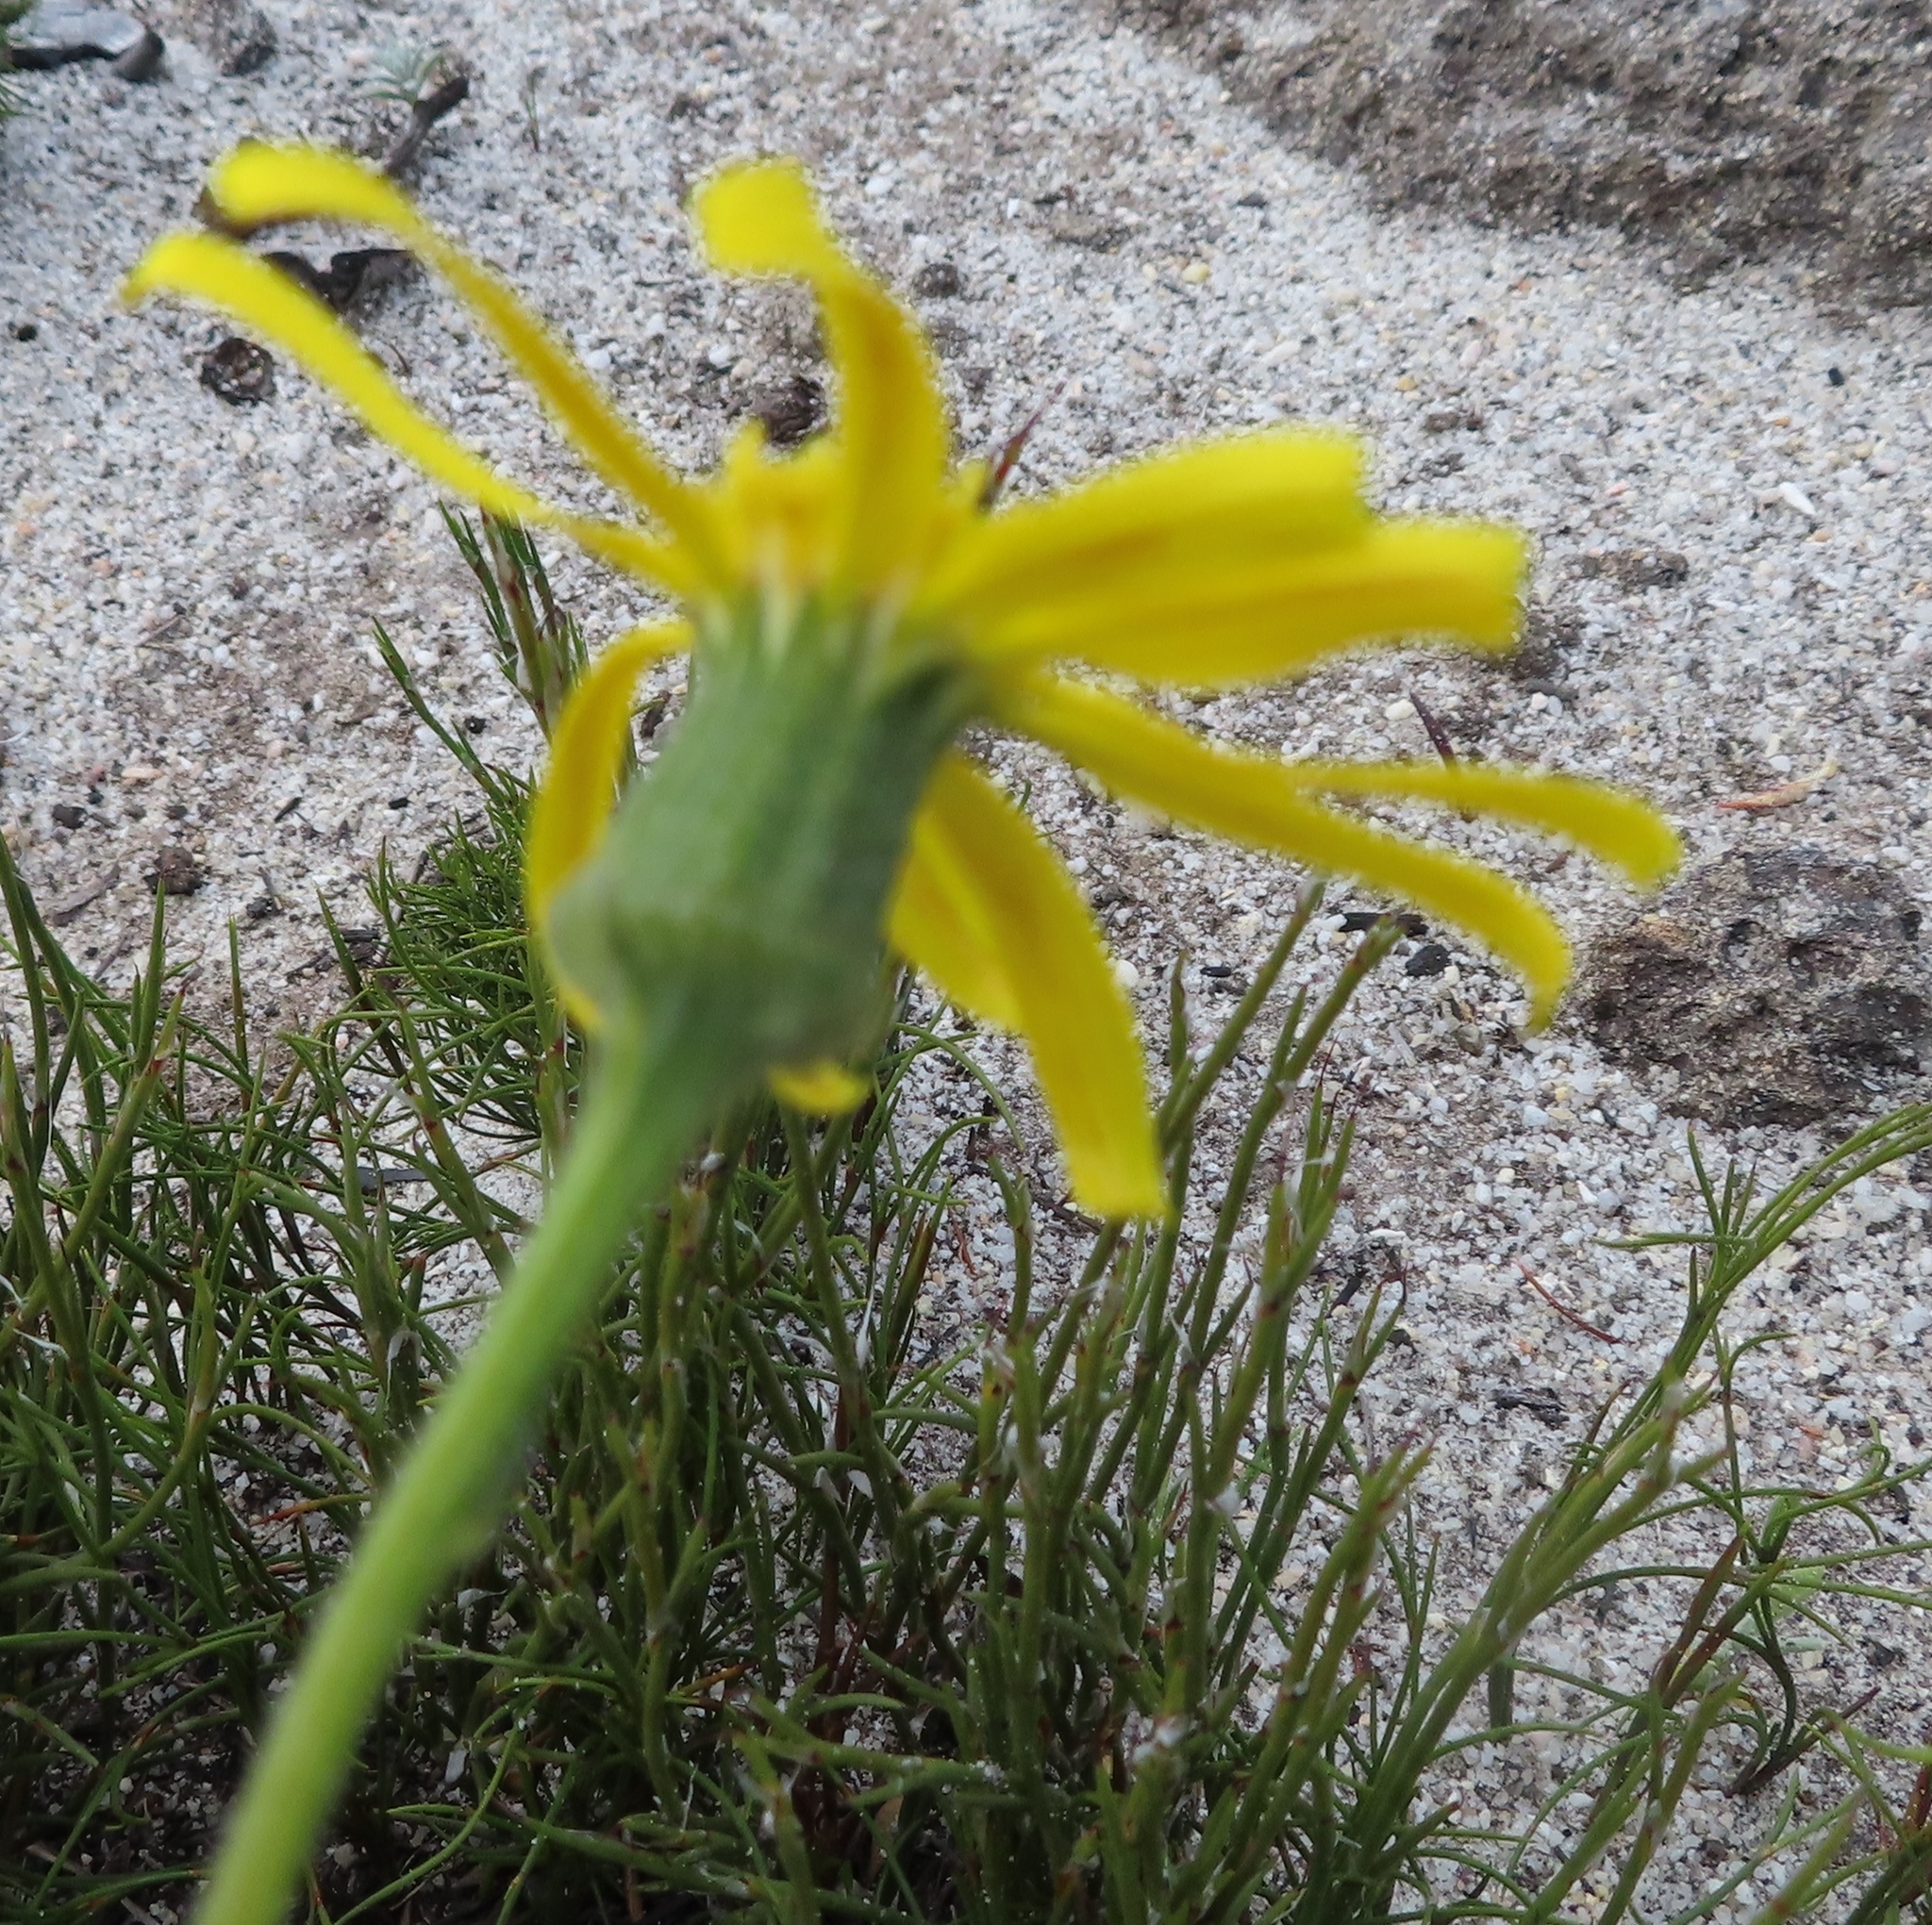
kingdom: Plantae
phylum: Tracheophyta
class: Magnoliopsida
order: Asterales
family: Asteraceae
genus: Senecio
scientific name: Senecio erosus
